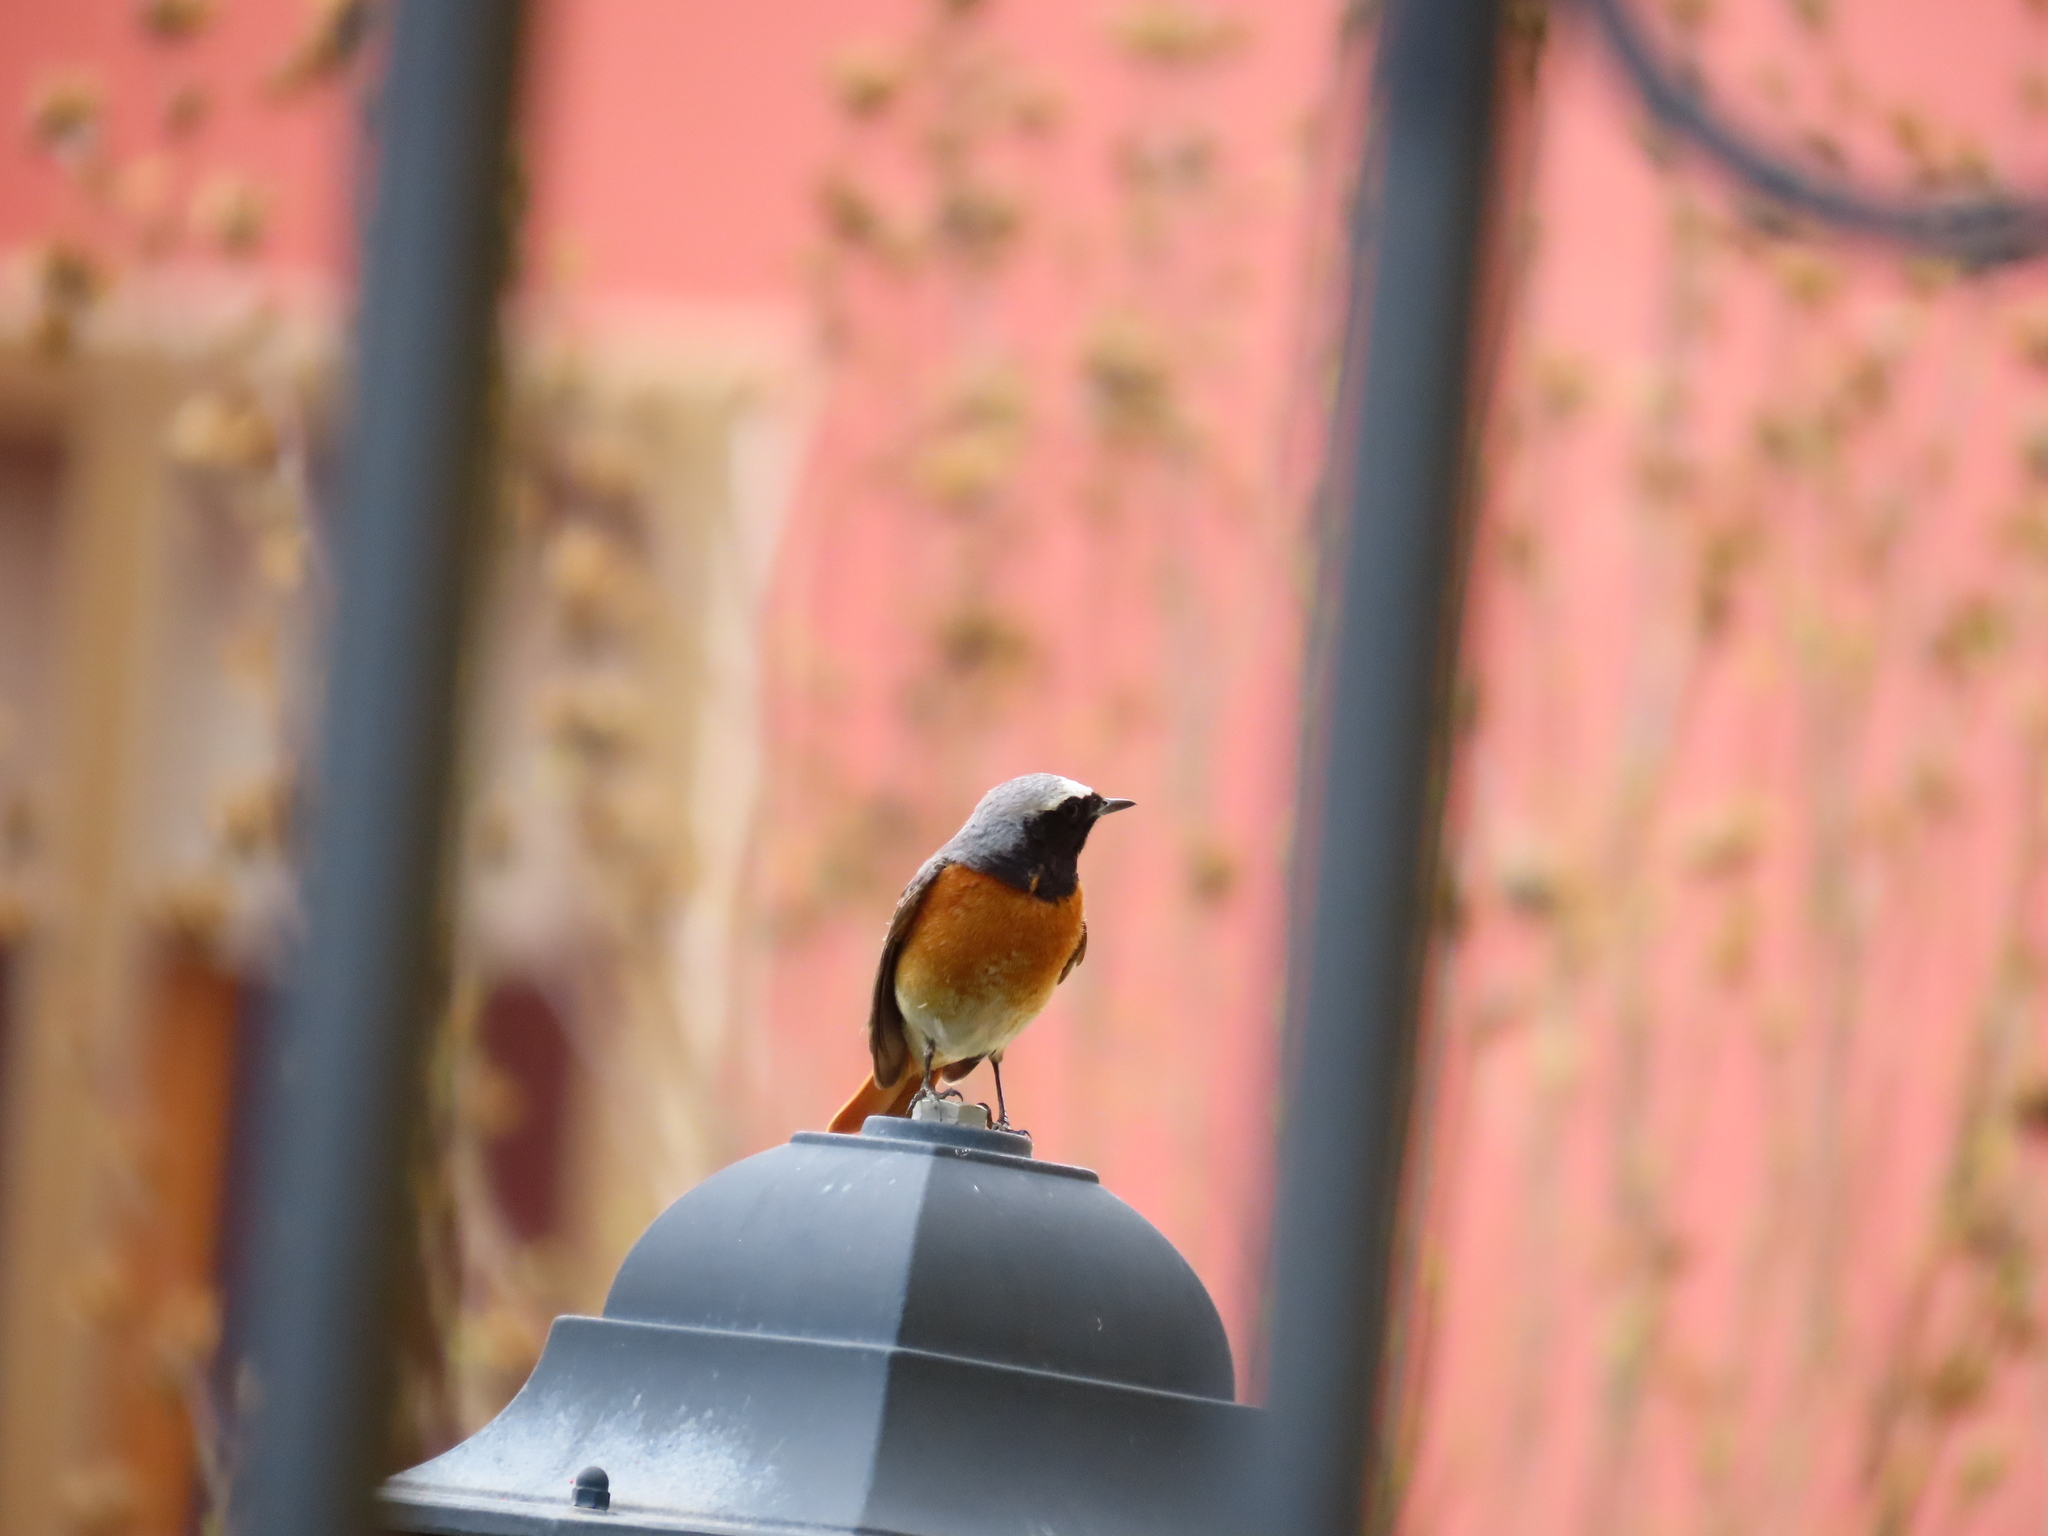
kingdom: Animalia
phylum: Chordata
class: Aves
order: Passeriformes
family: Muscicapidae
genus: Phoenicurus
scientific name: Phoenicurus phoenicurus
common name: Common redstart
